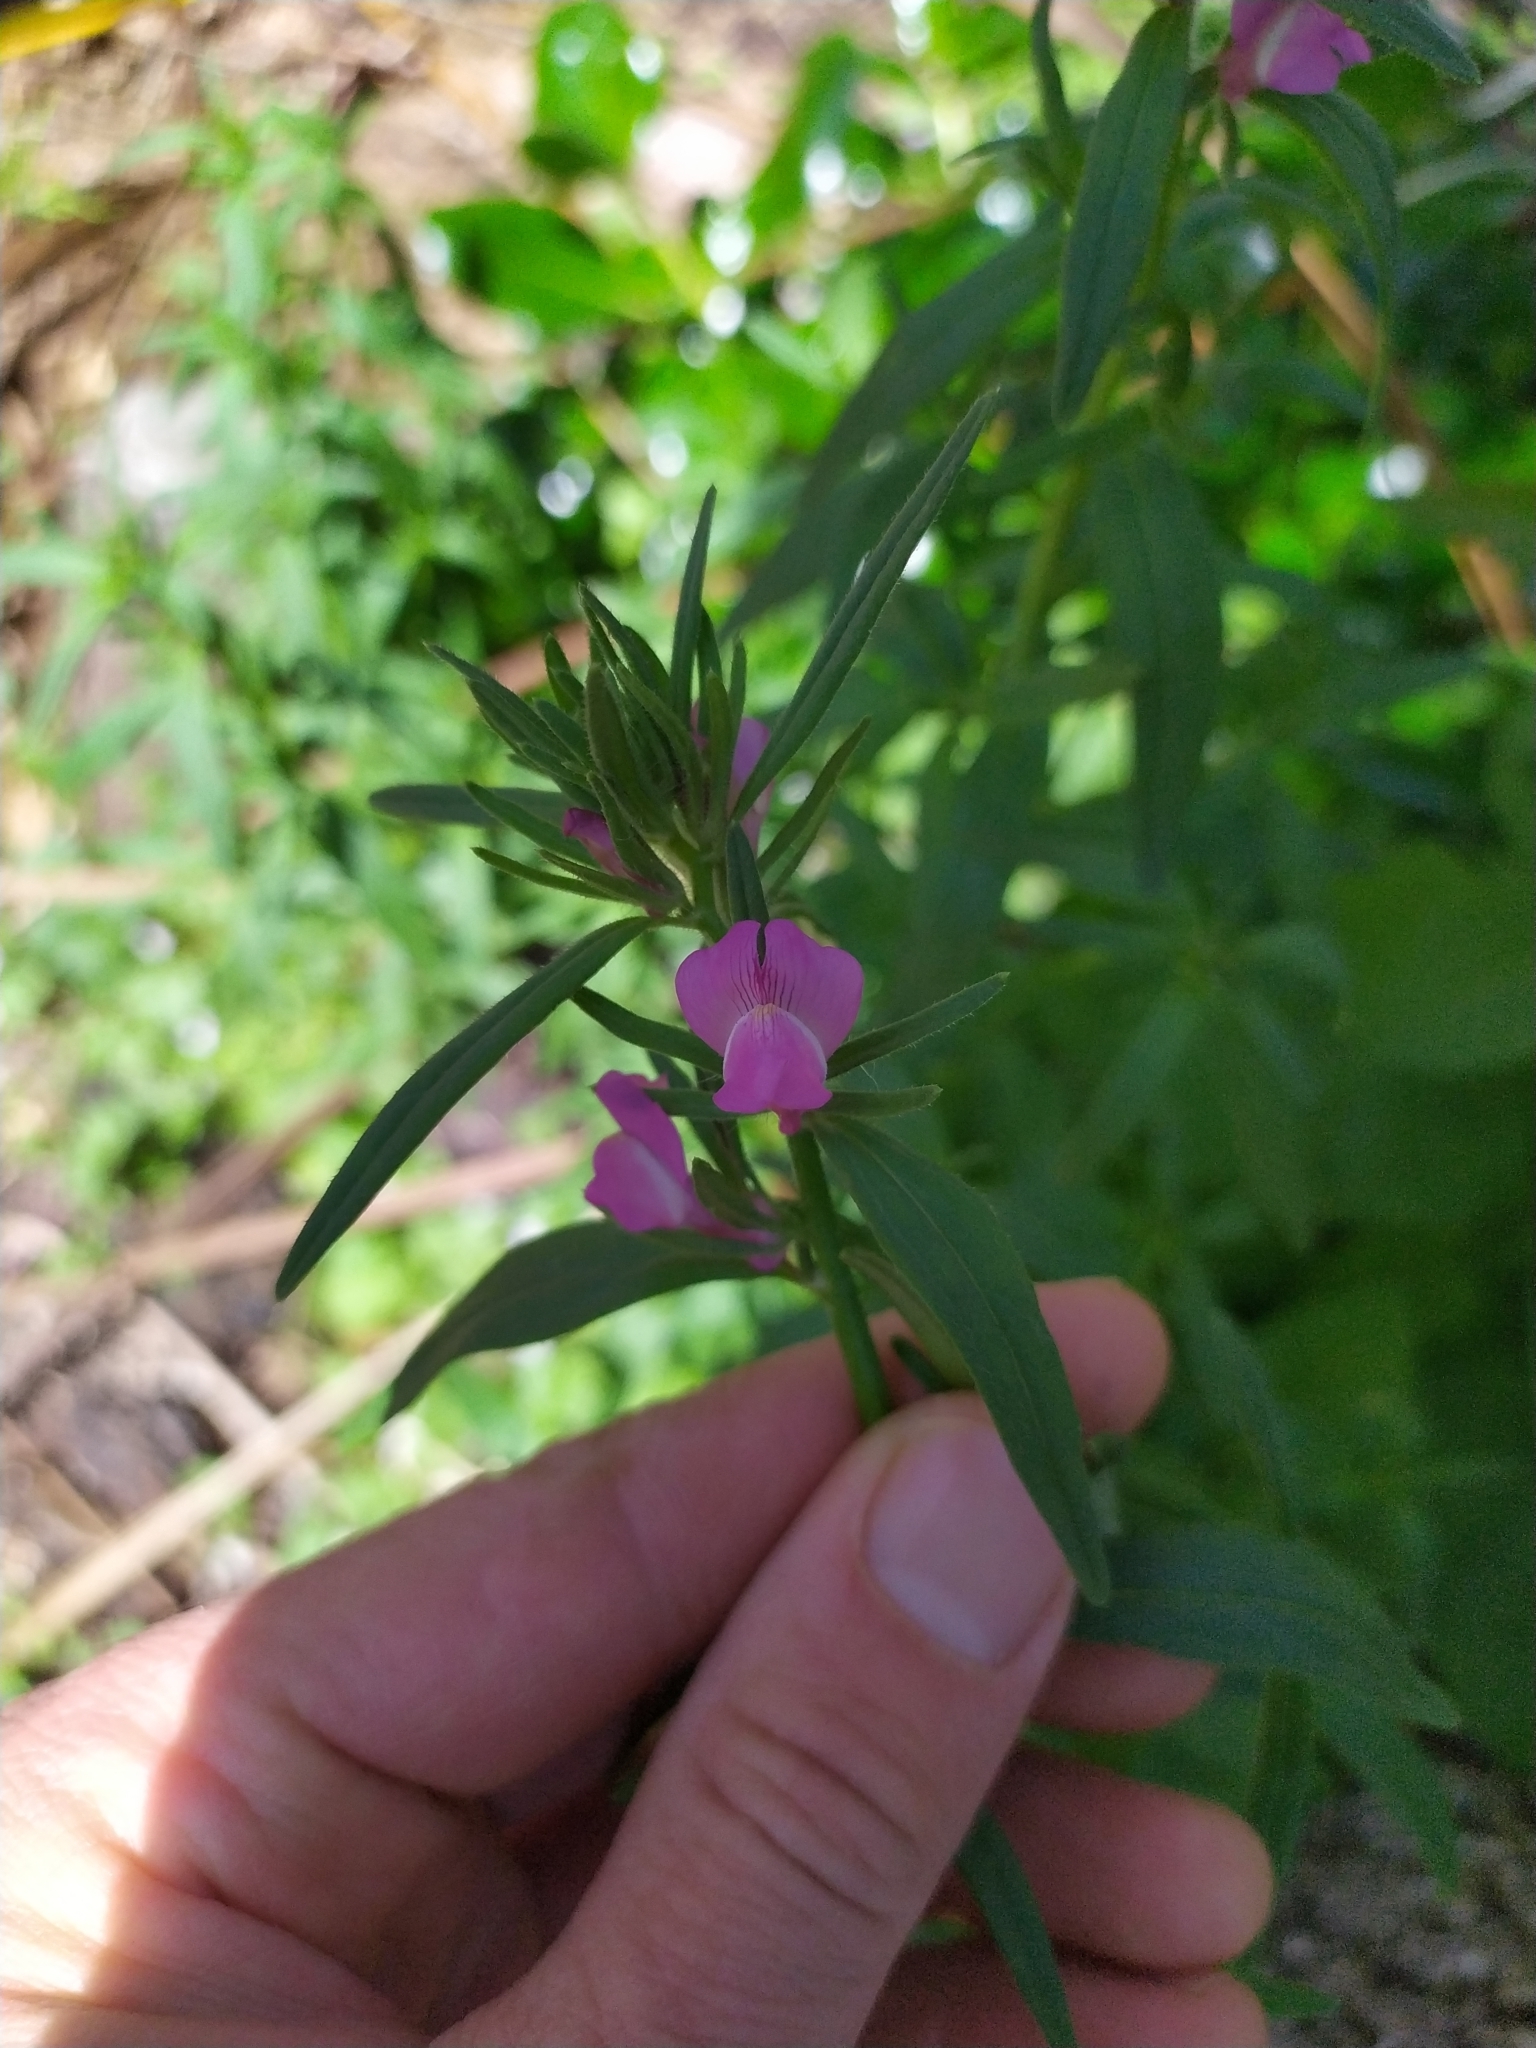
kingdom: Plantae
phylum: Tracheophyta
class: Magnoliopsida
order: Lamiales
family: Plantaginaceae
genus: Misopates
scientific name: Misopates orontium
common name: Weasel's-snout
